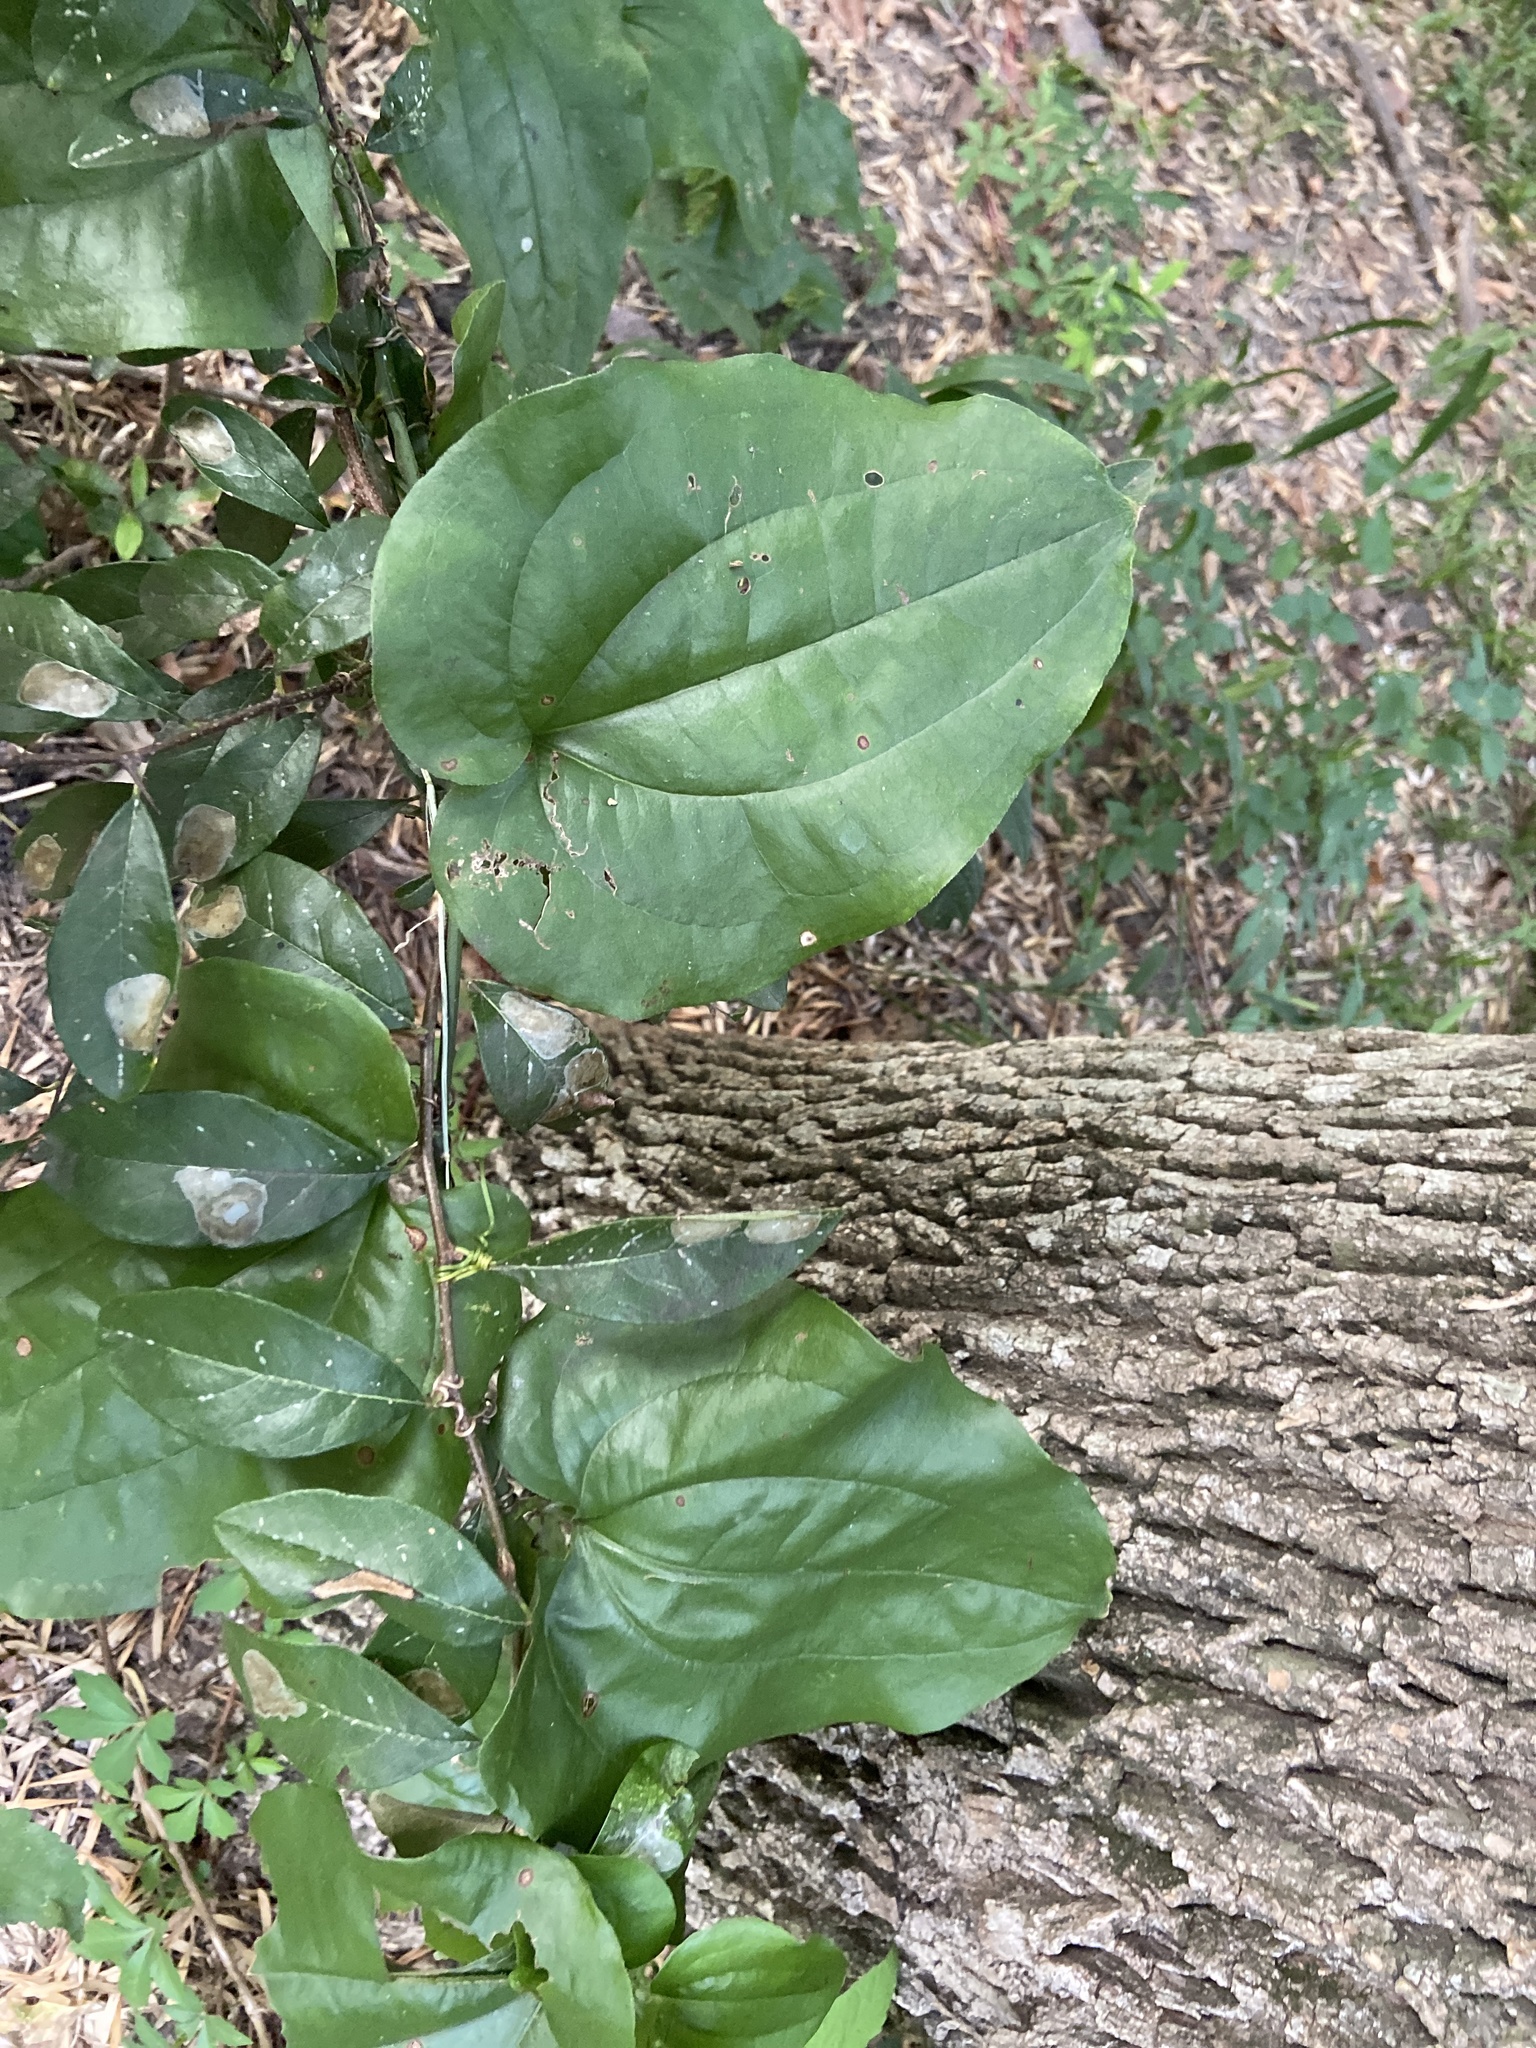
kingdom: Plantae
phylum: Tracheophyta
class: Liliopsida
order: Liliales
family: Smilacaceae
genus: Smilax
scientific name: Smilax tamnoides
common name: Hellfetter
